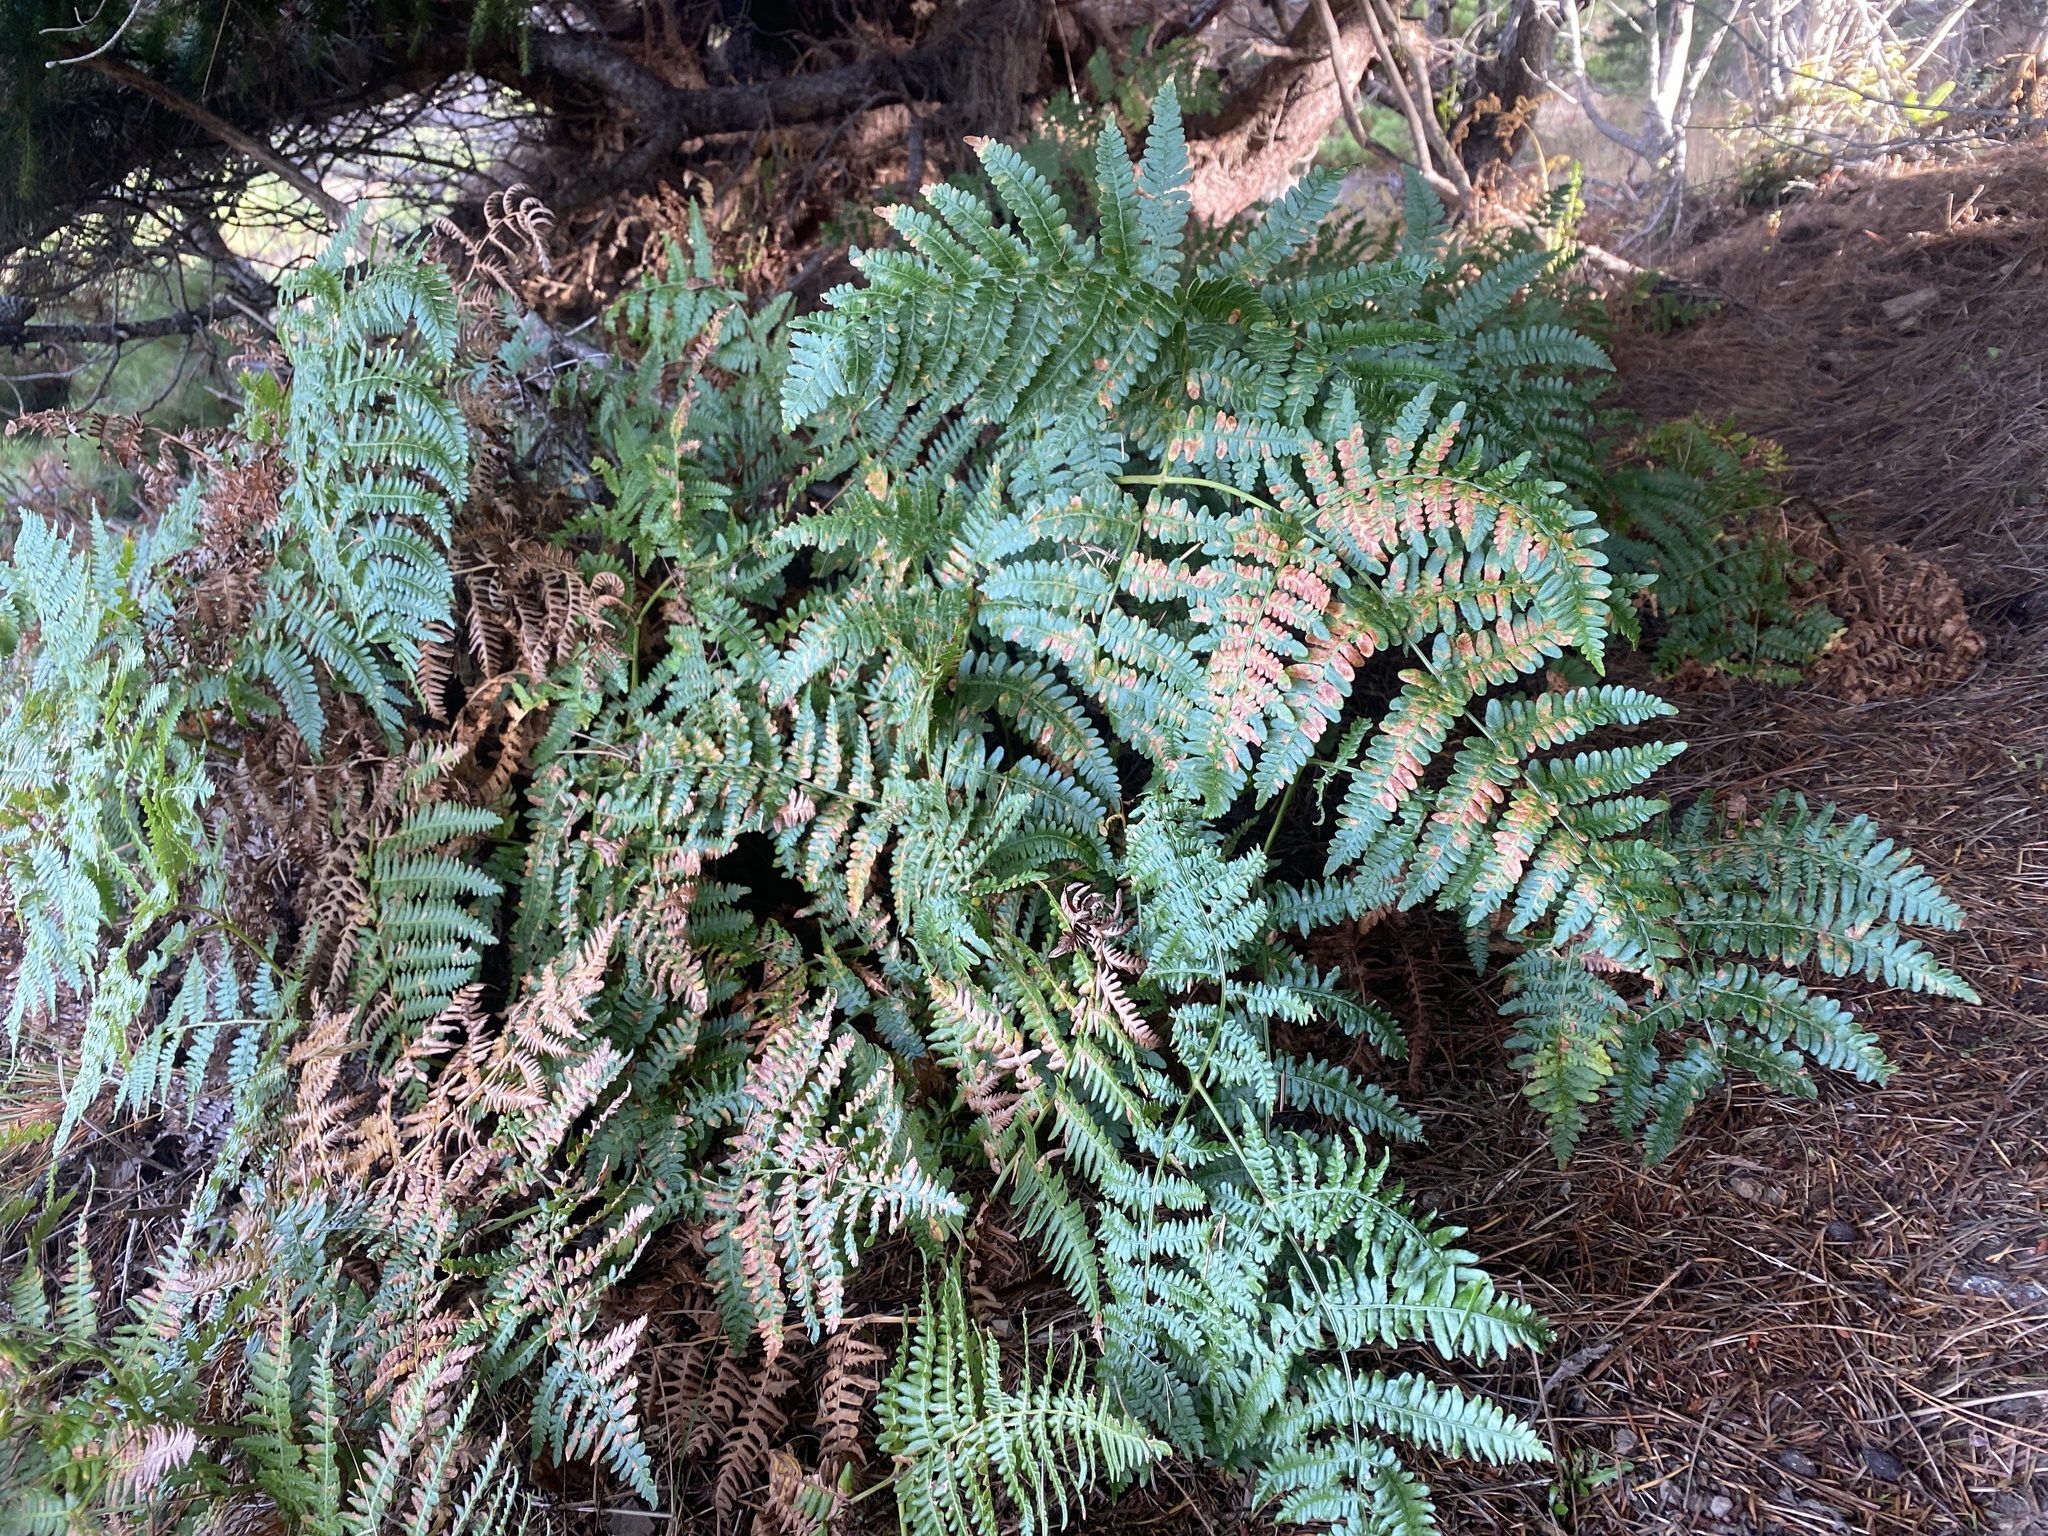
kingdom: Plantae
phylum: Tracheophyta
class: Polypodiopsida
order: Polypodiales
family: Dennstaedtiaceae
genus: Pteridium
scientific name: Pteridium aquilinum
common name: Bracken
